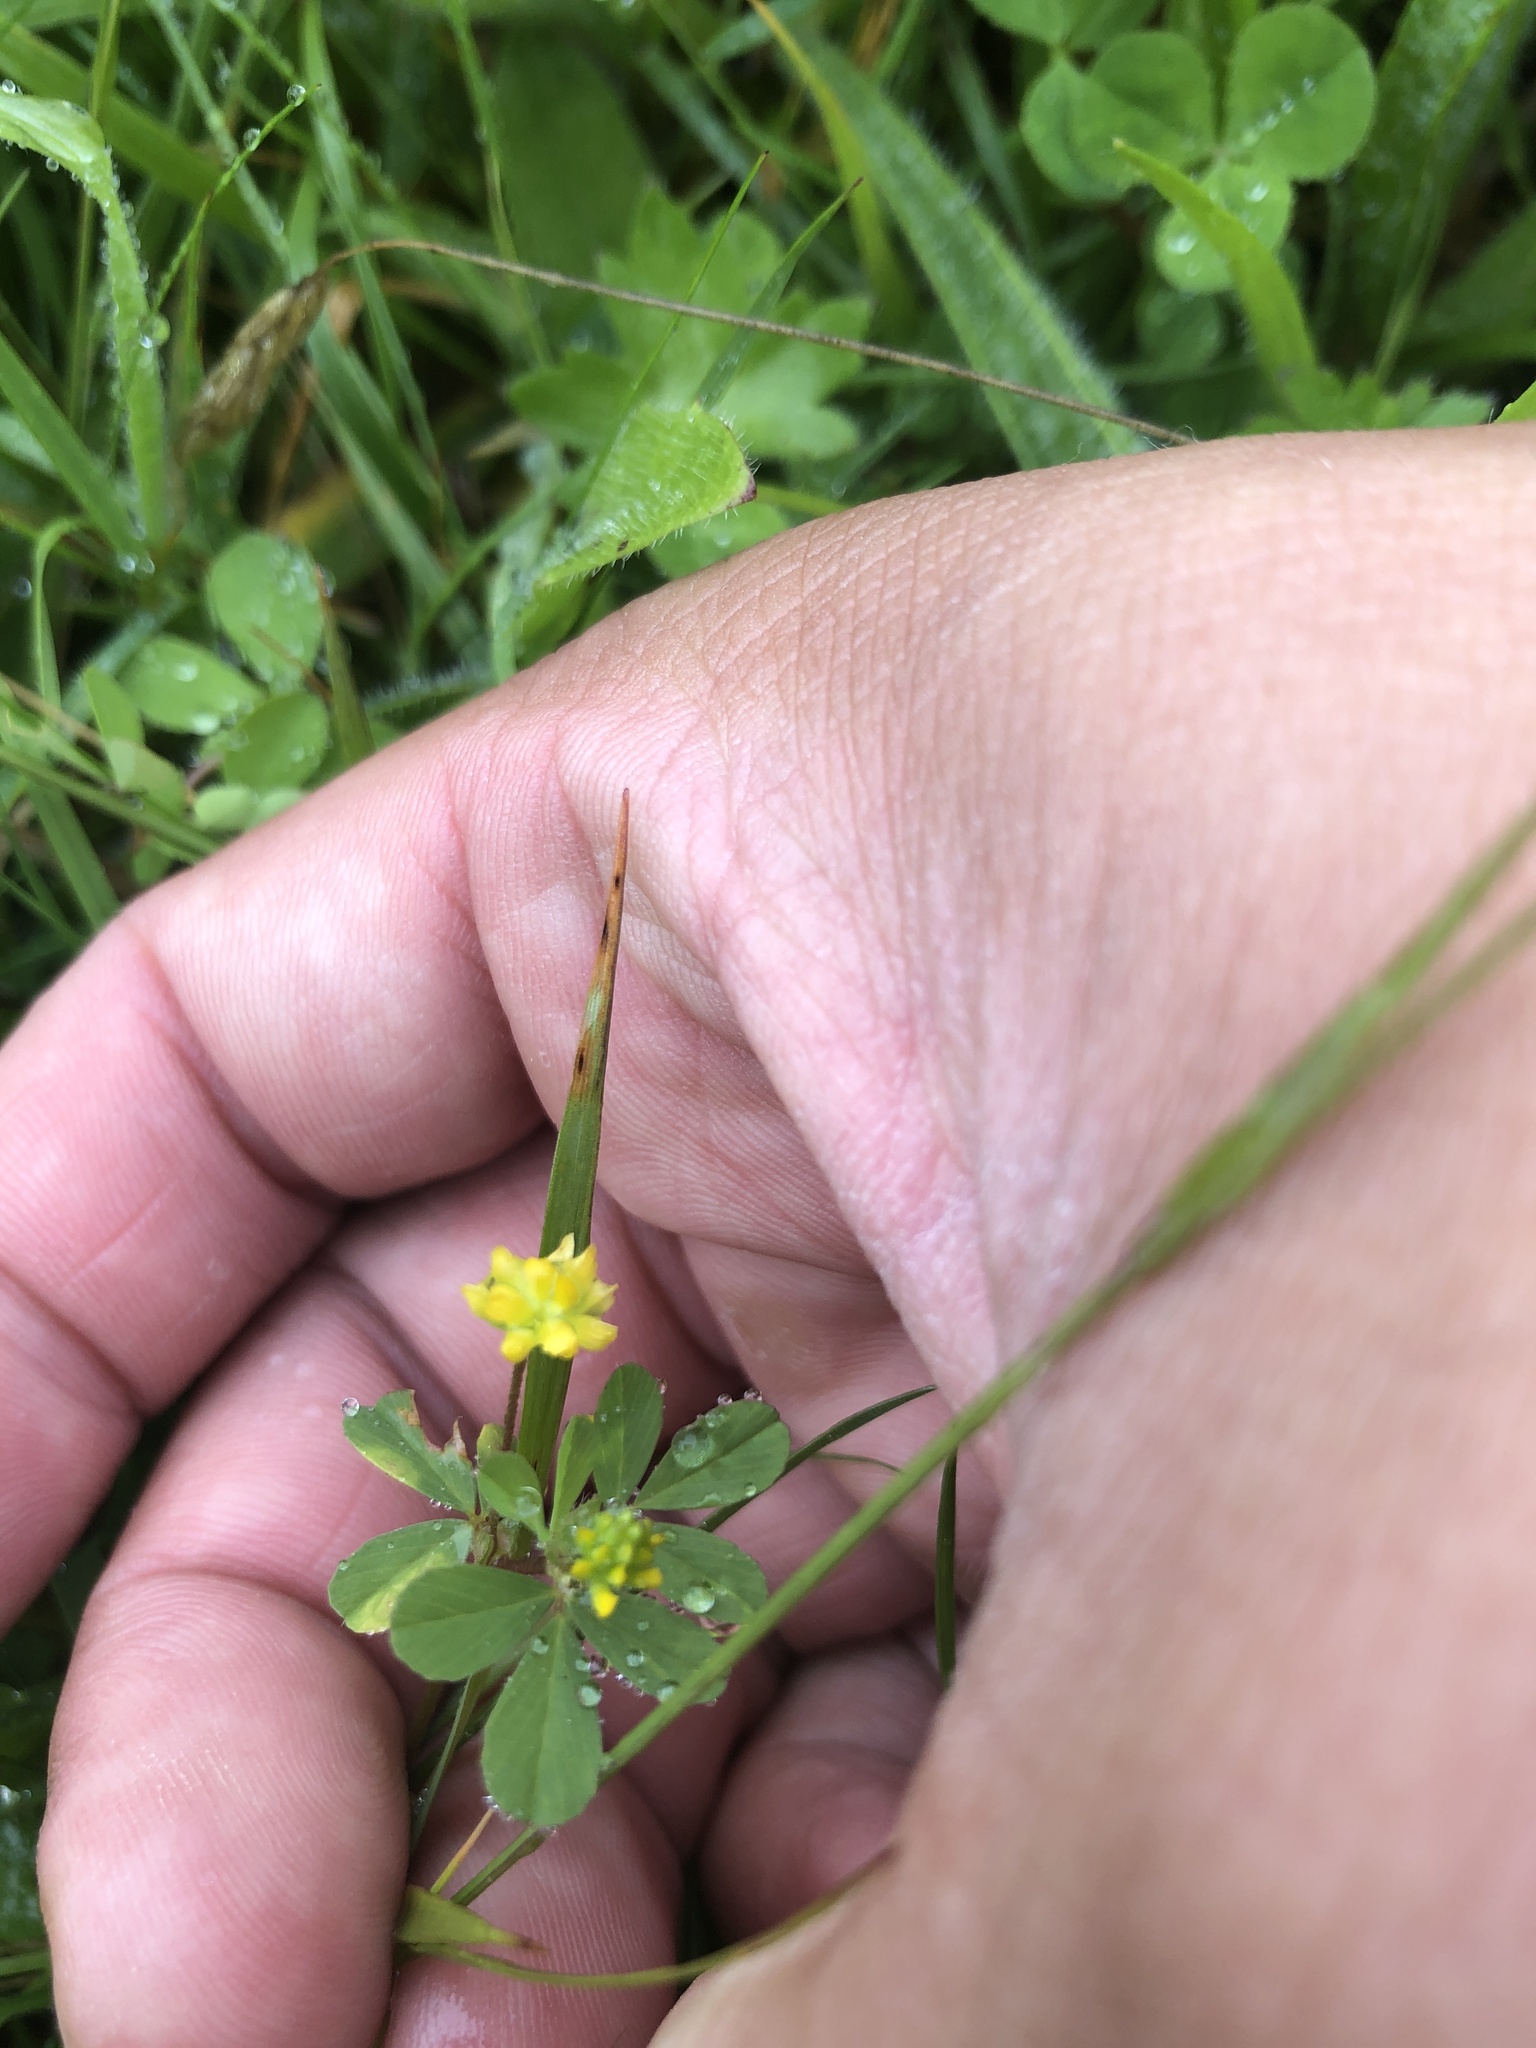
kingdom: Plantae
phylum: Tracheophyta
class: Magnoliopsida
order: Fabales
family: Fabaceae
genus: Trifolium
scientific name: Trifolium dubium
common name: Suckling clover
